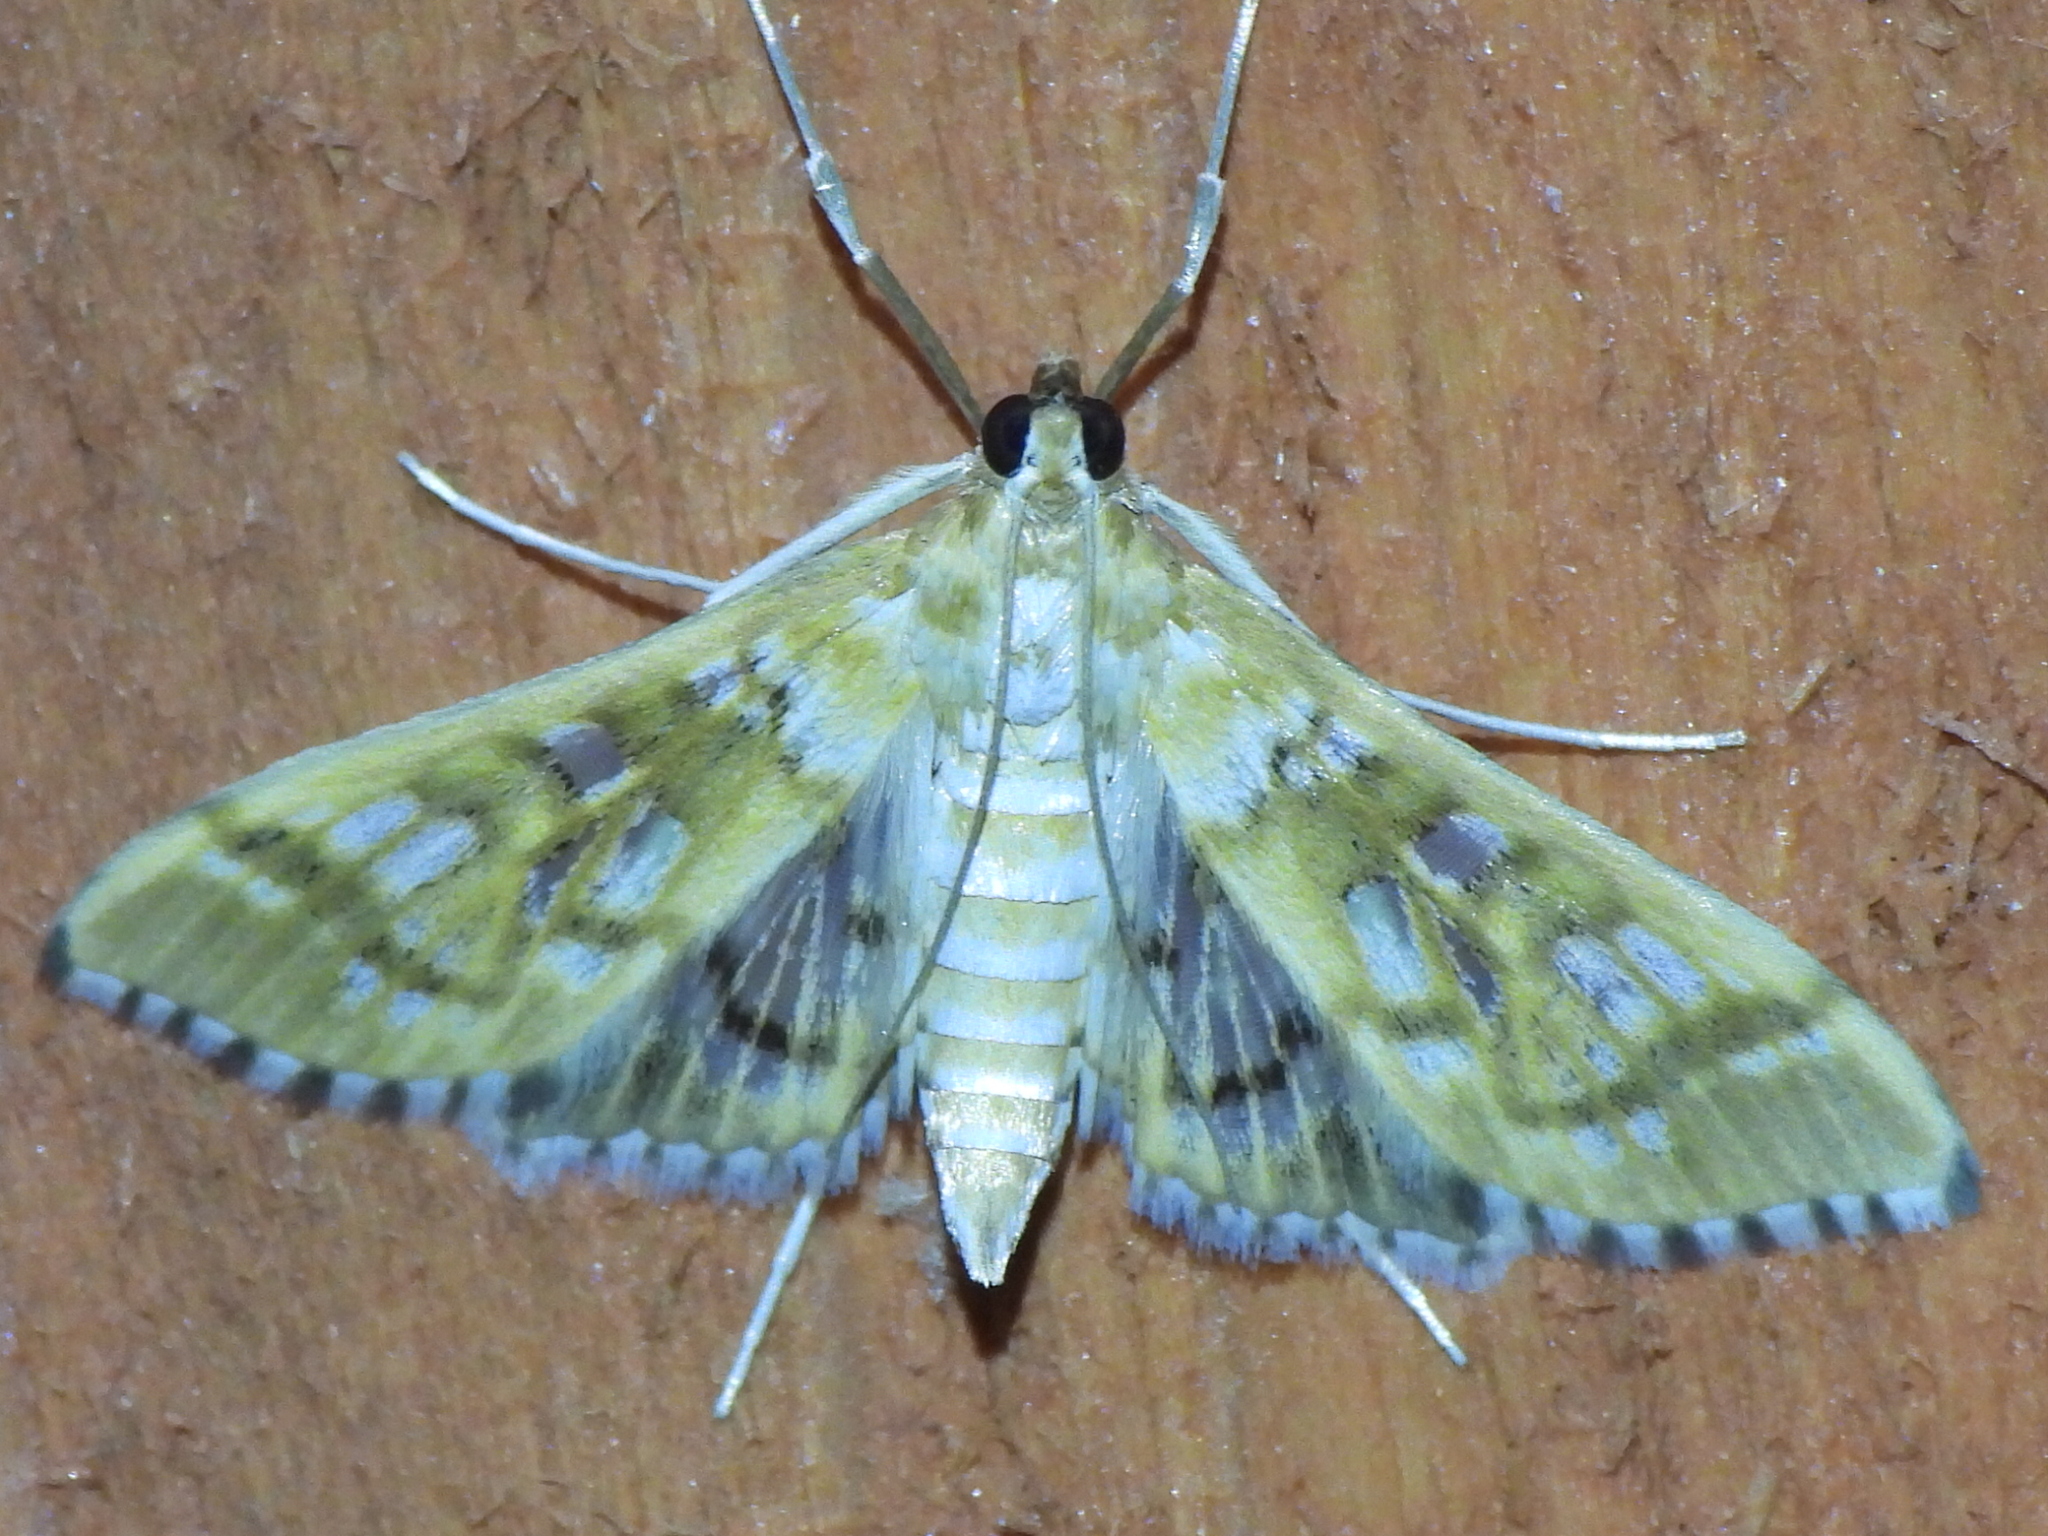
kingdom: Animalia
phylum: Arthropoda
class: Insecta
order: Lepidoptera
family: Crambidae
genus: Epipagis
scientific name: Epipagis fenestralis
